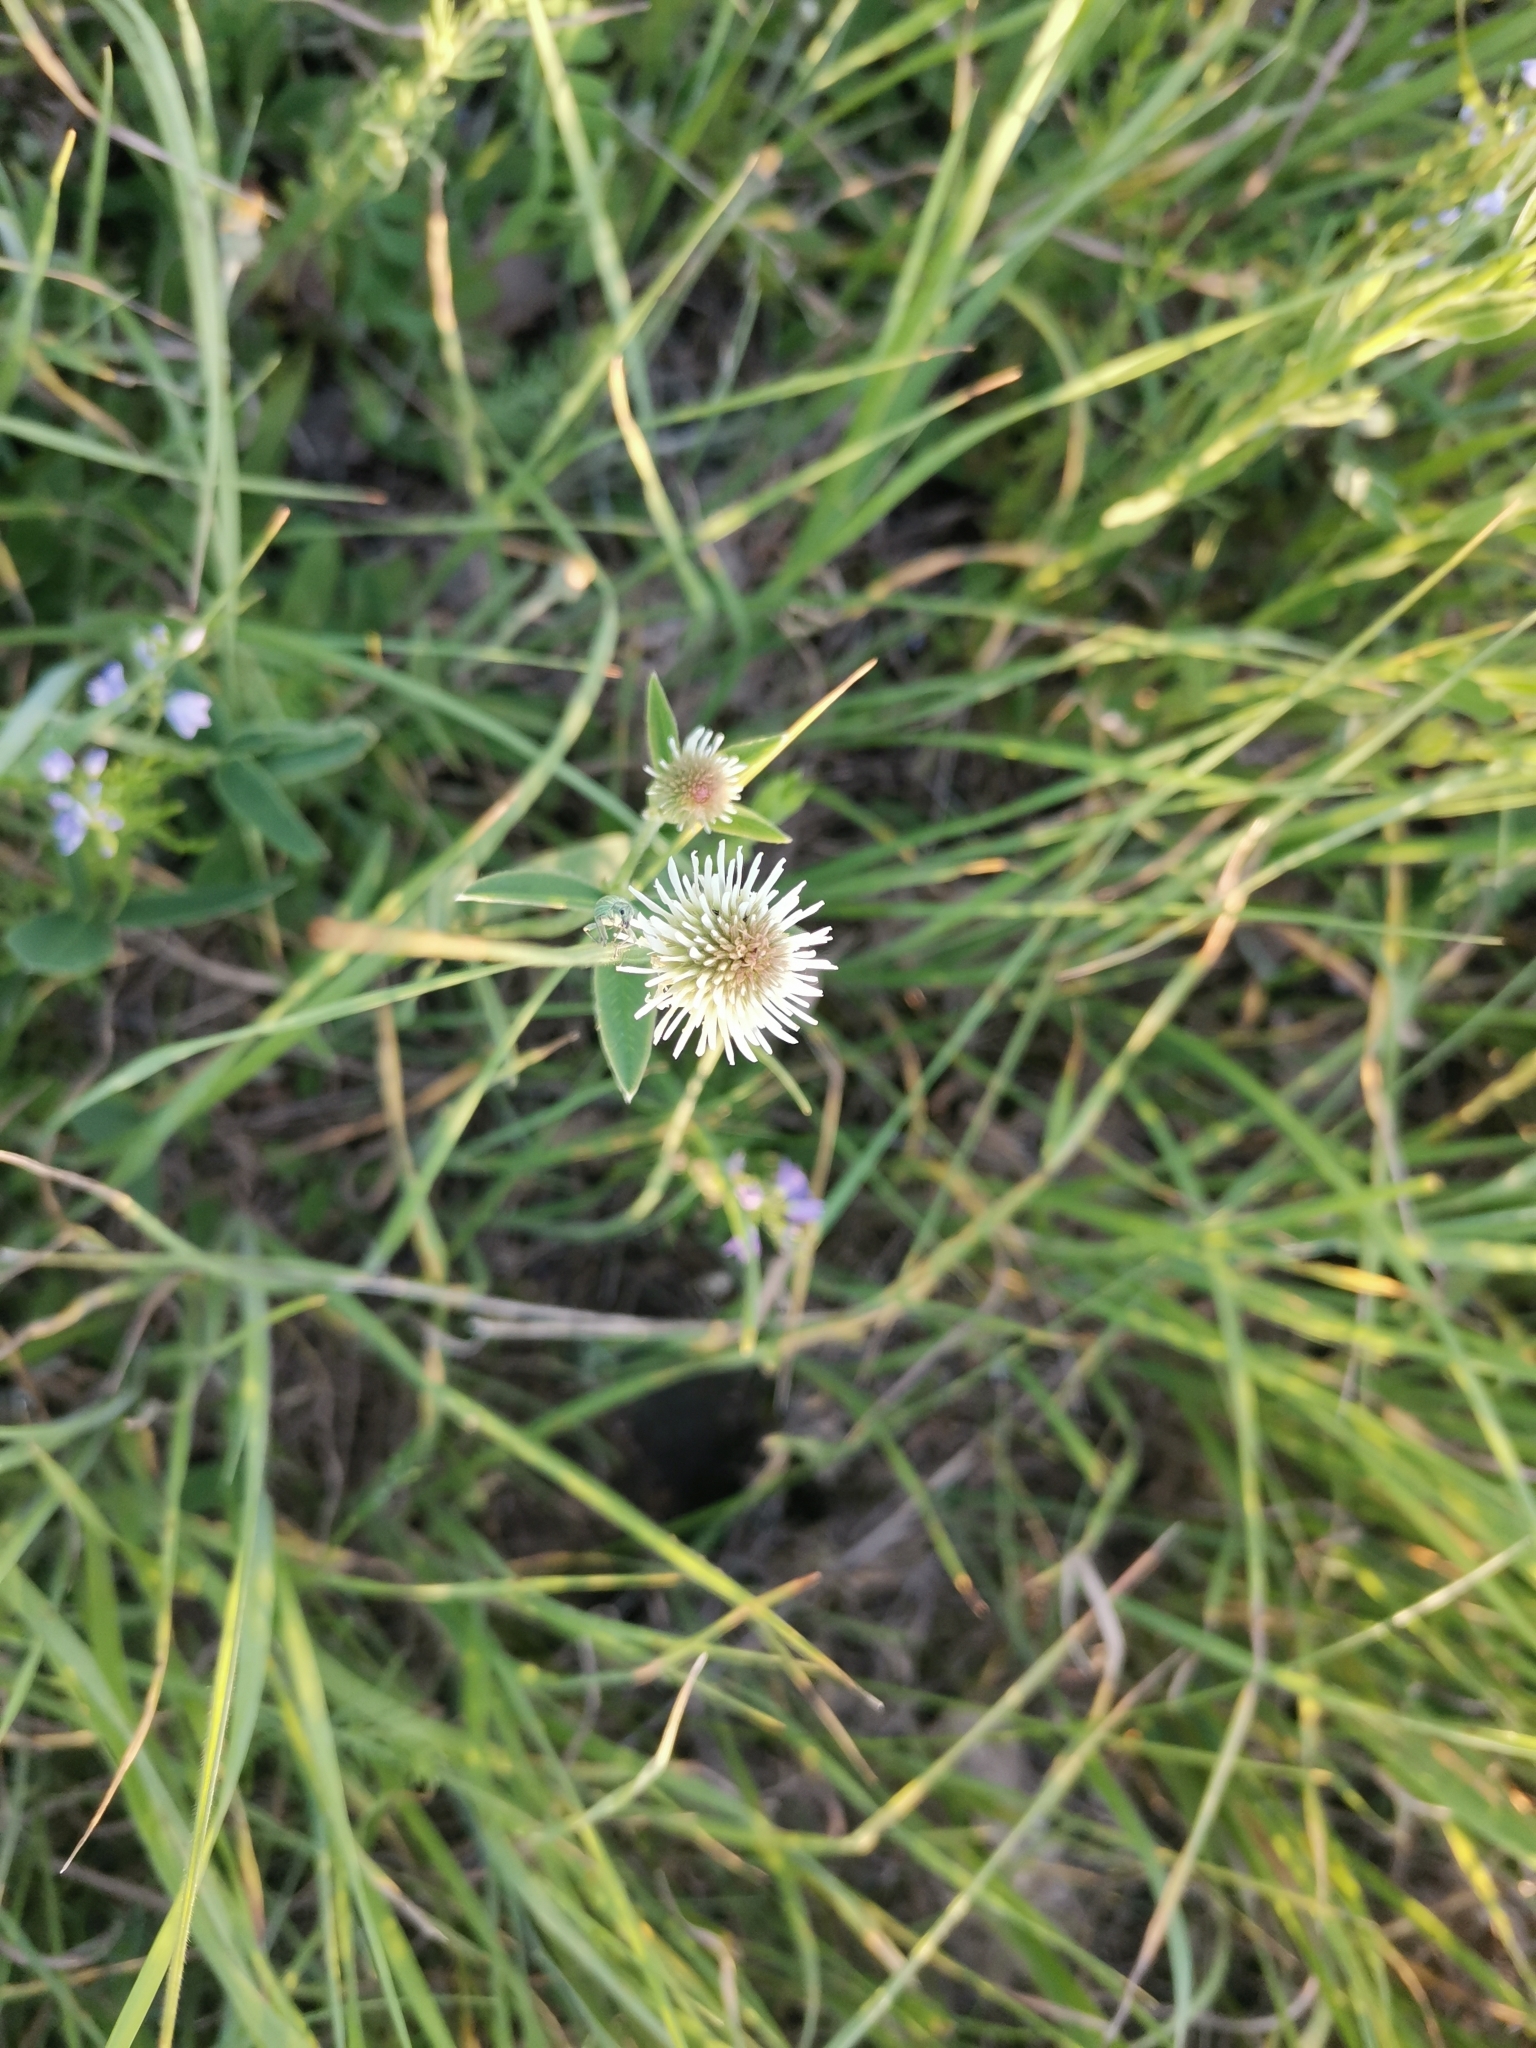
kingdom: Plantae
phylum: Tracheophyta
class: Magnoliopsida
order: Fabales
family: Fabaceae
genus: Trifolium
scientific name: Trifolium montanum
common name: Mountain clover
